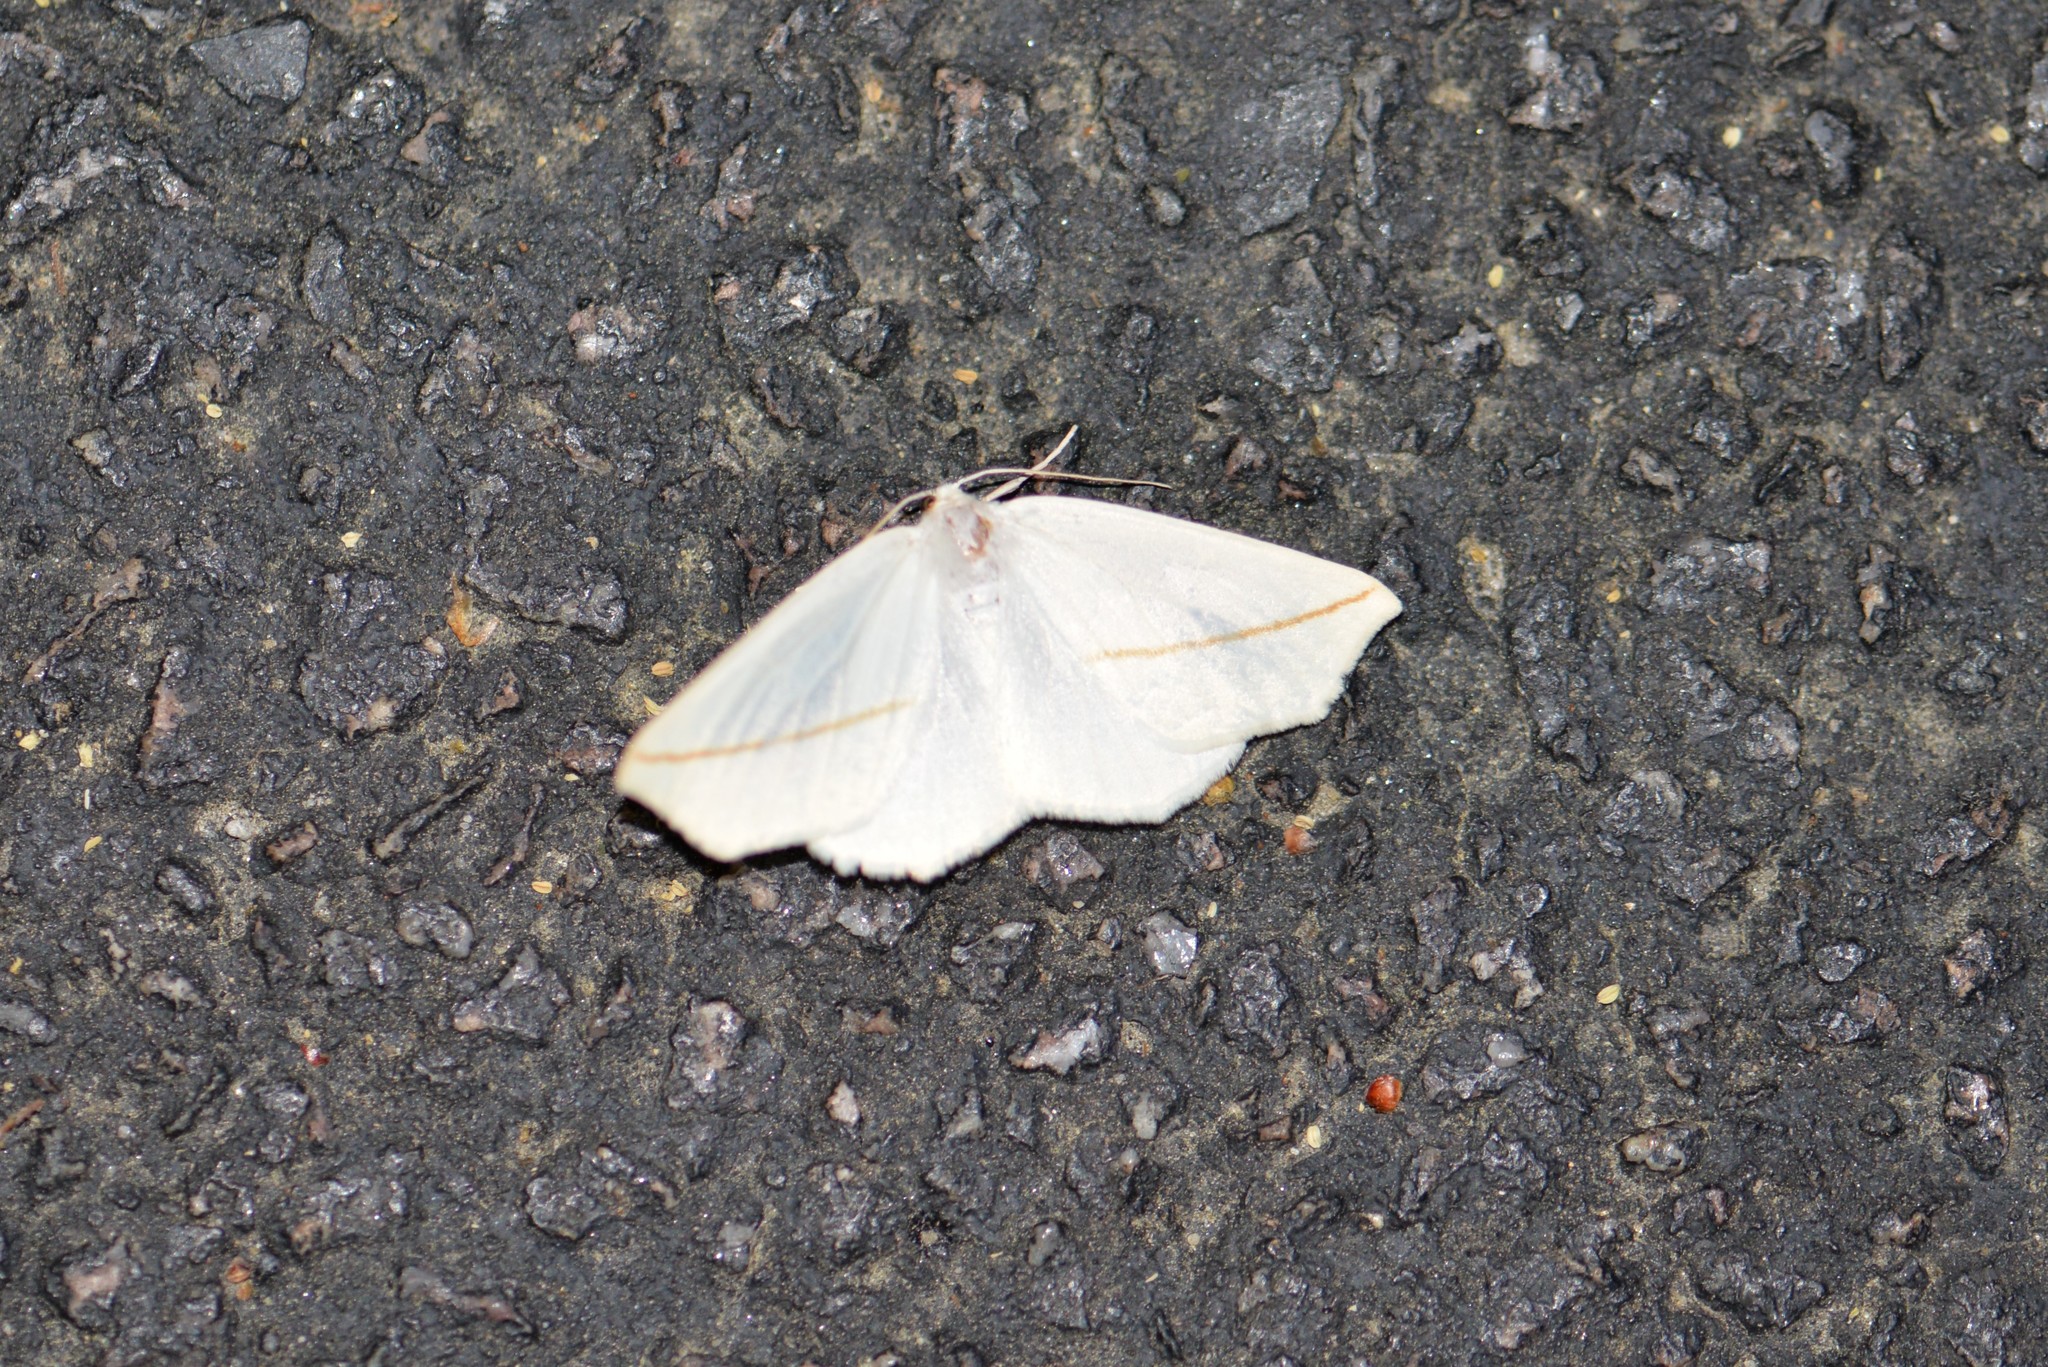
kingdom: Animalia
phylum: Arthropoda
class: Insecta
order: Lepidoptera
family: Geometridae
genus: Tetracis
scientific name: Tetracis cachexiata
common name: White slant-line
